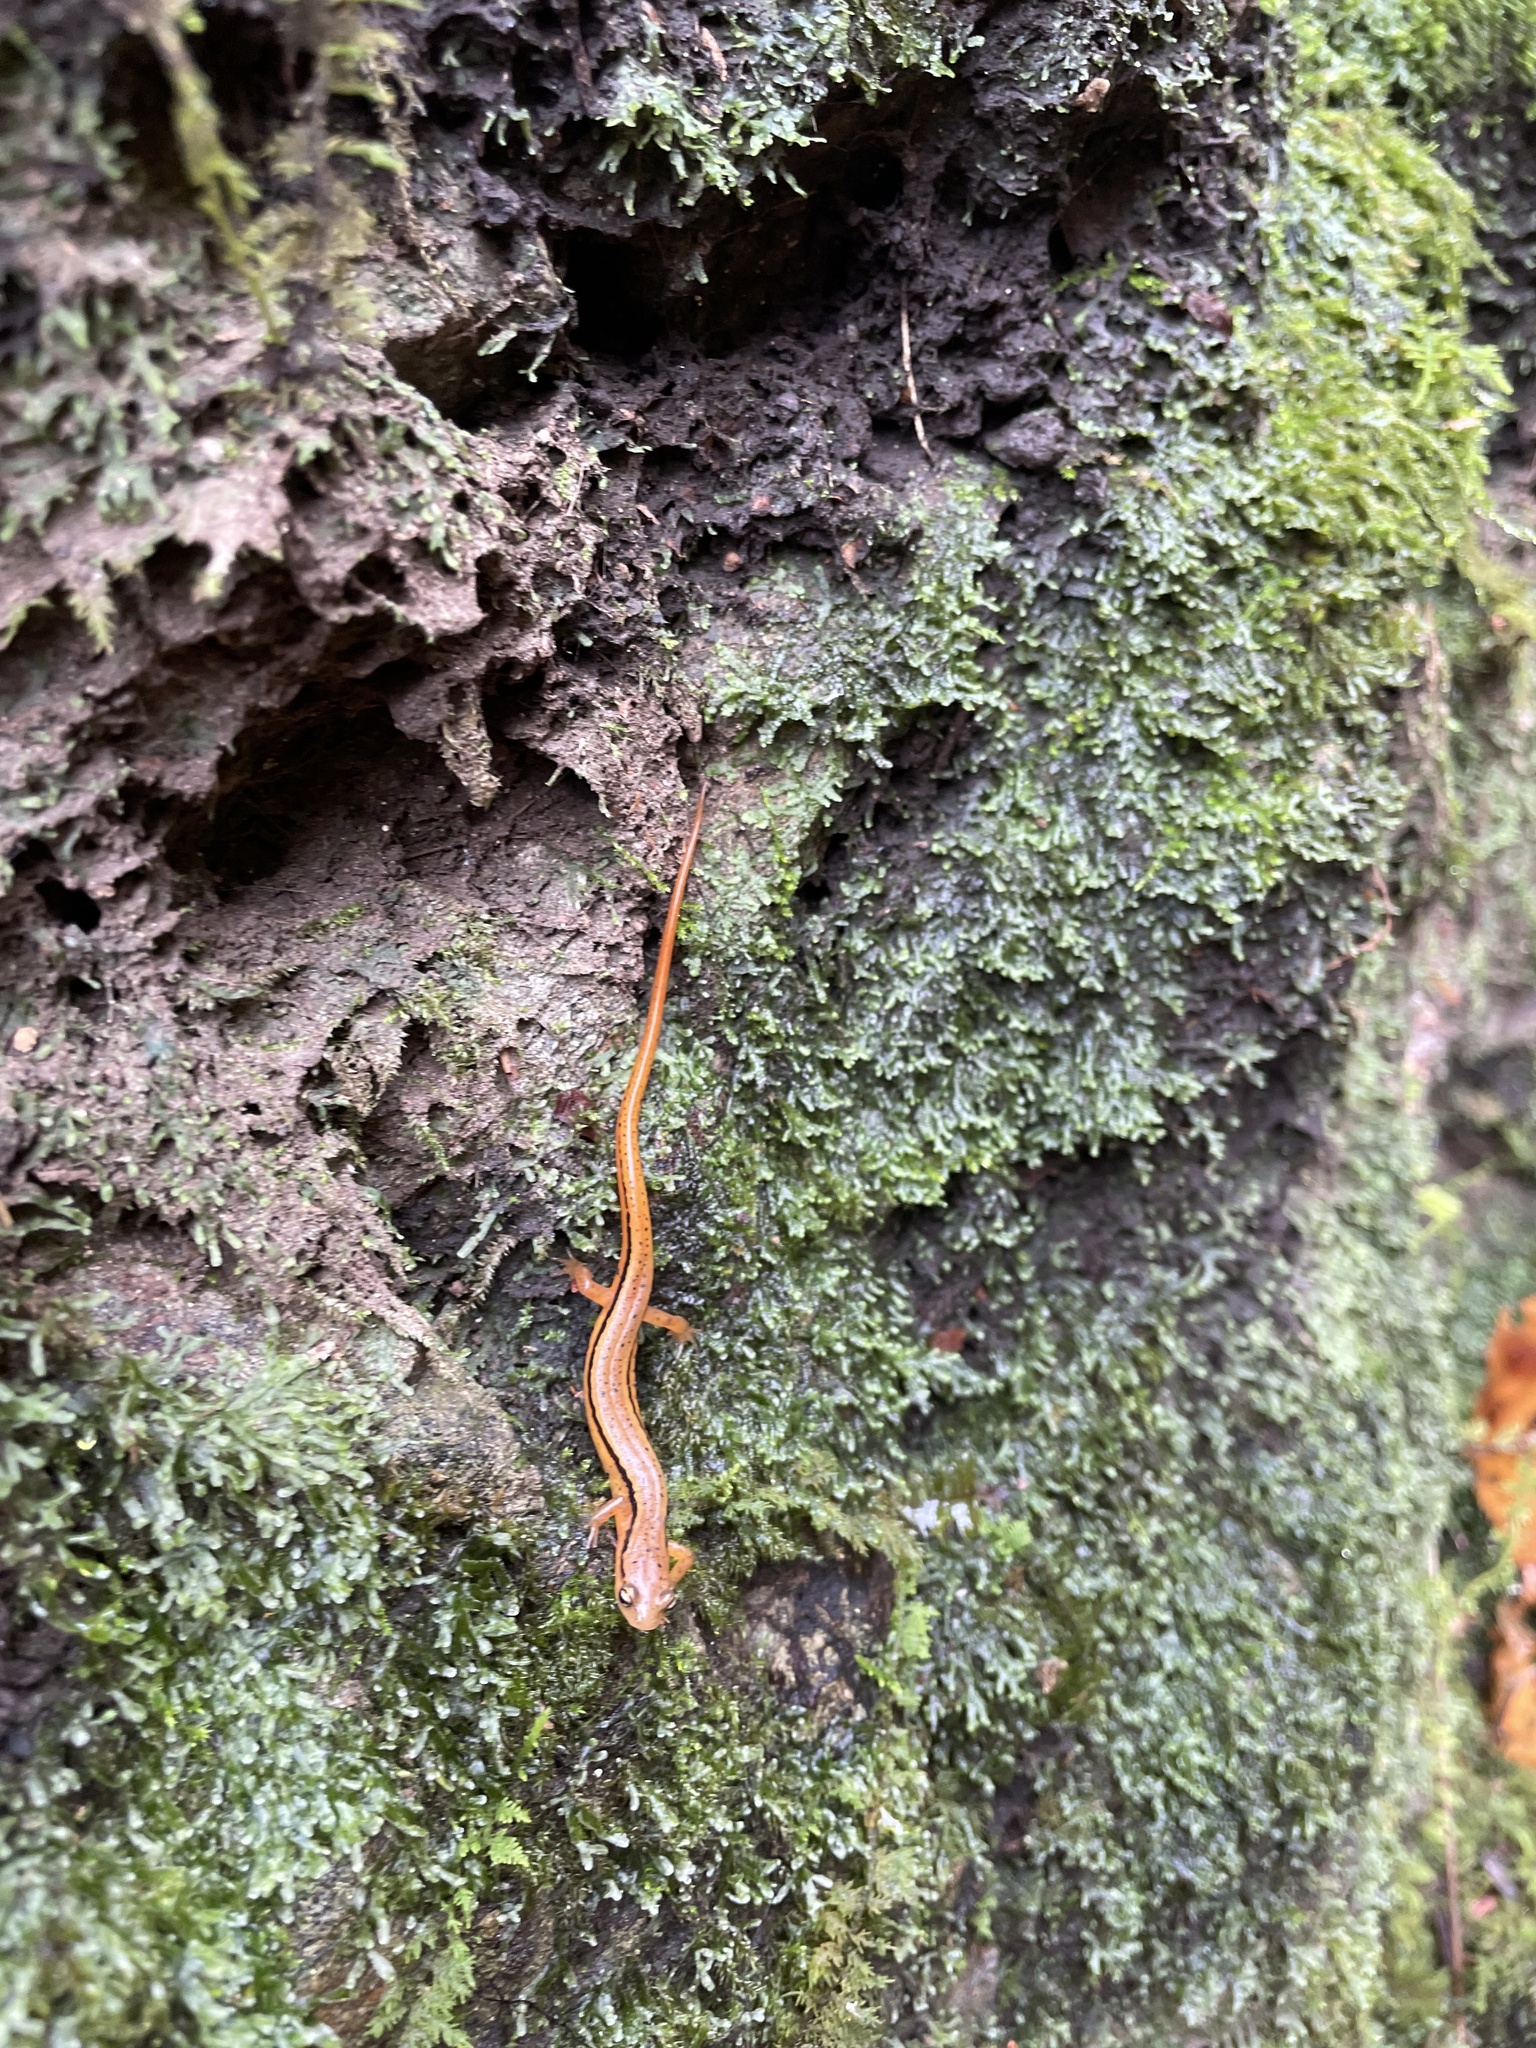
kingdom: Animalia
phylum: Chordata
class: Amphibia
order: Caudata
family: Plethodontidae
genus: Eurycea
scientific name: Eurycea wilderae
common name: Blue ridge two-lined salamander
